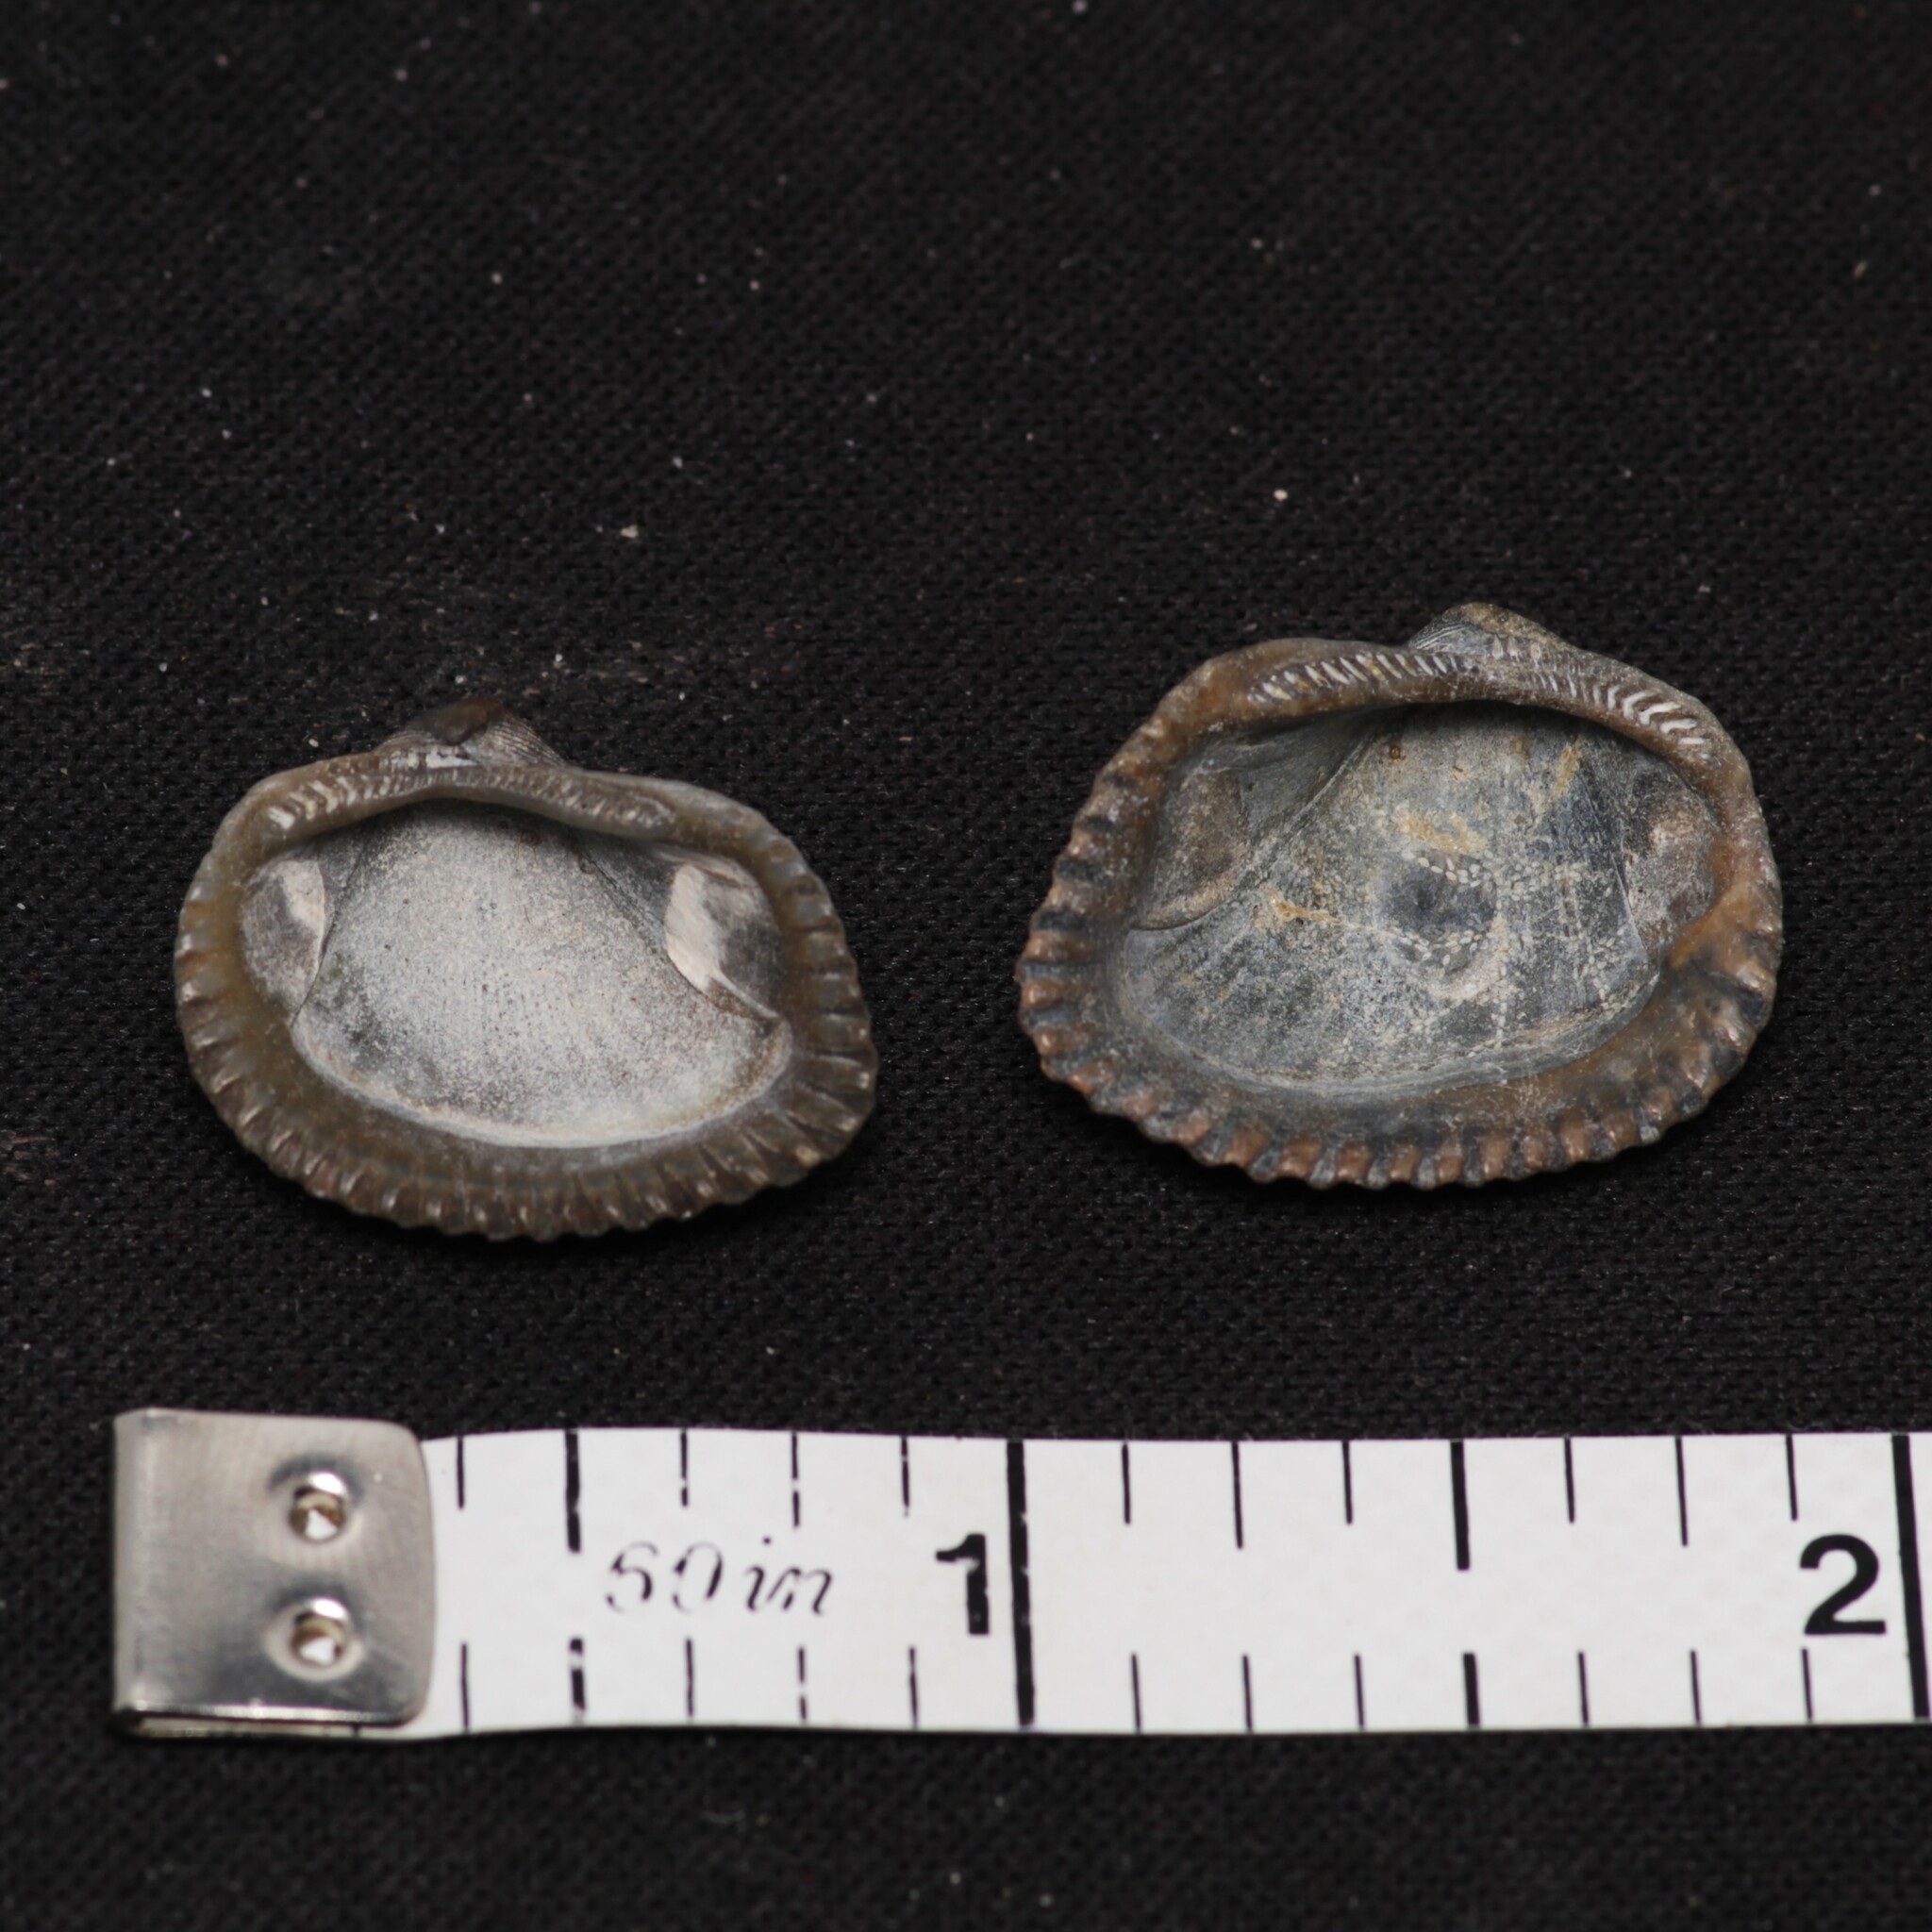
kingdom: Animalia
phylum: Mollusca
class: Bivalvia
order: Arcida
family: Noetiidae
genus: Noetia
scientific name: Noetia ponderosa
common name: Ponderous ark
